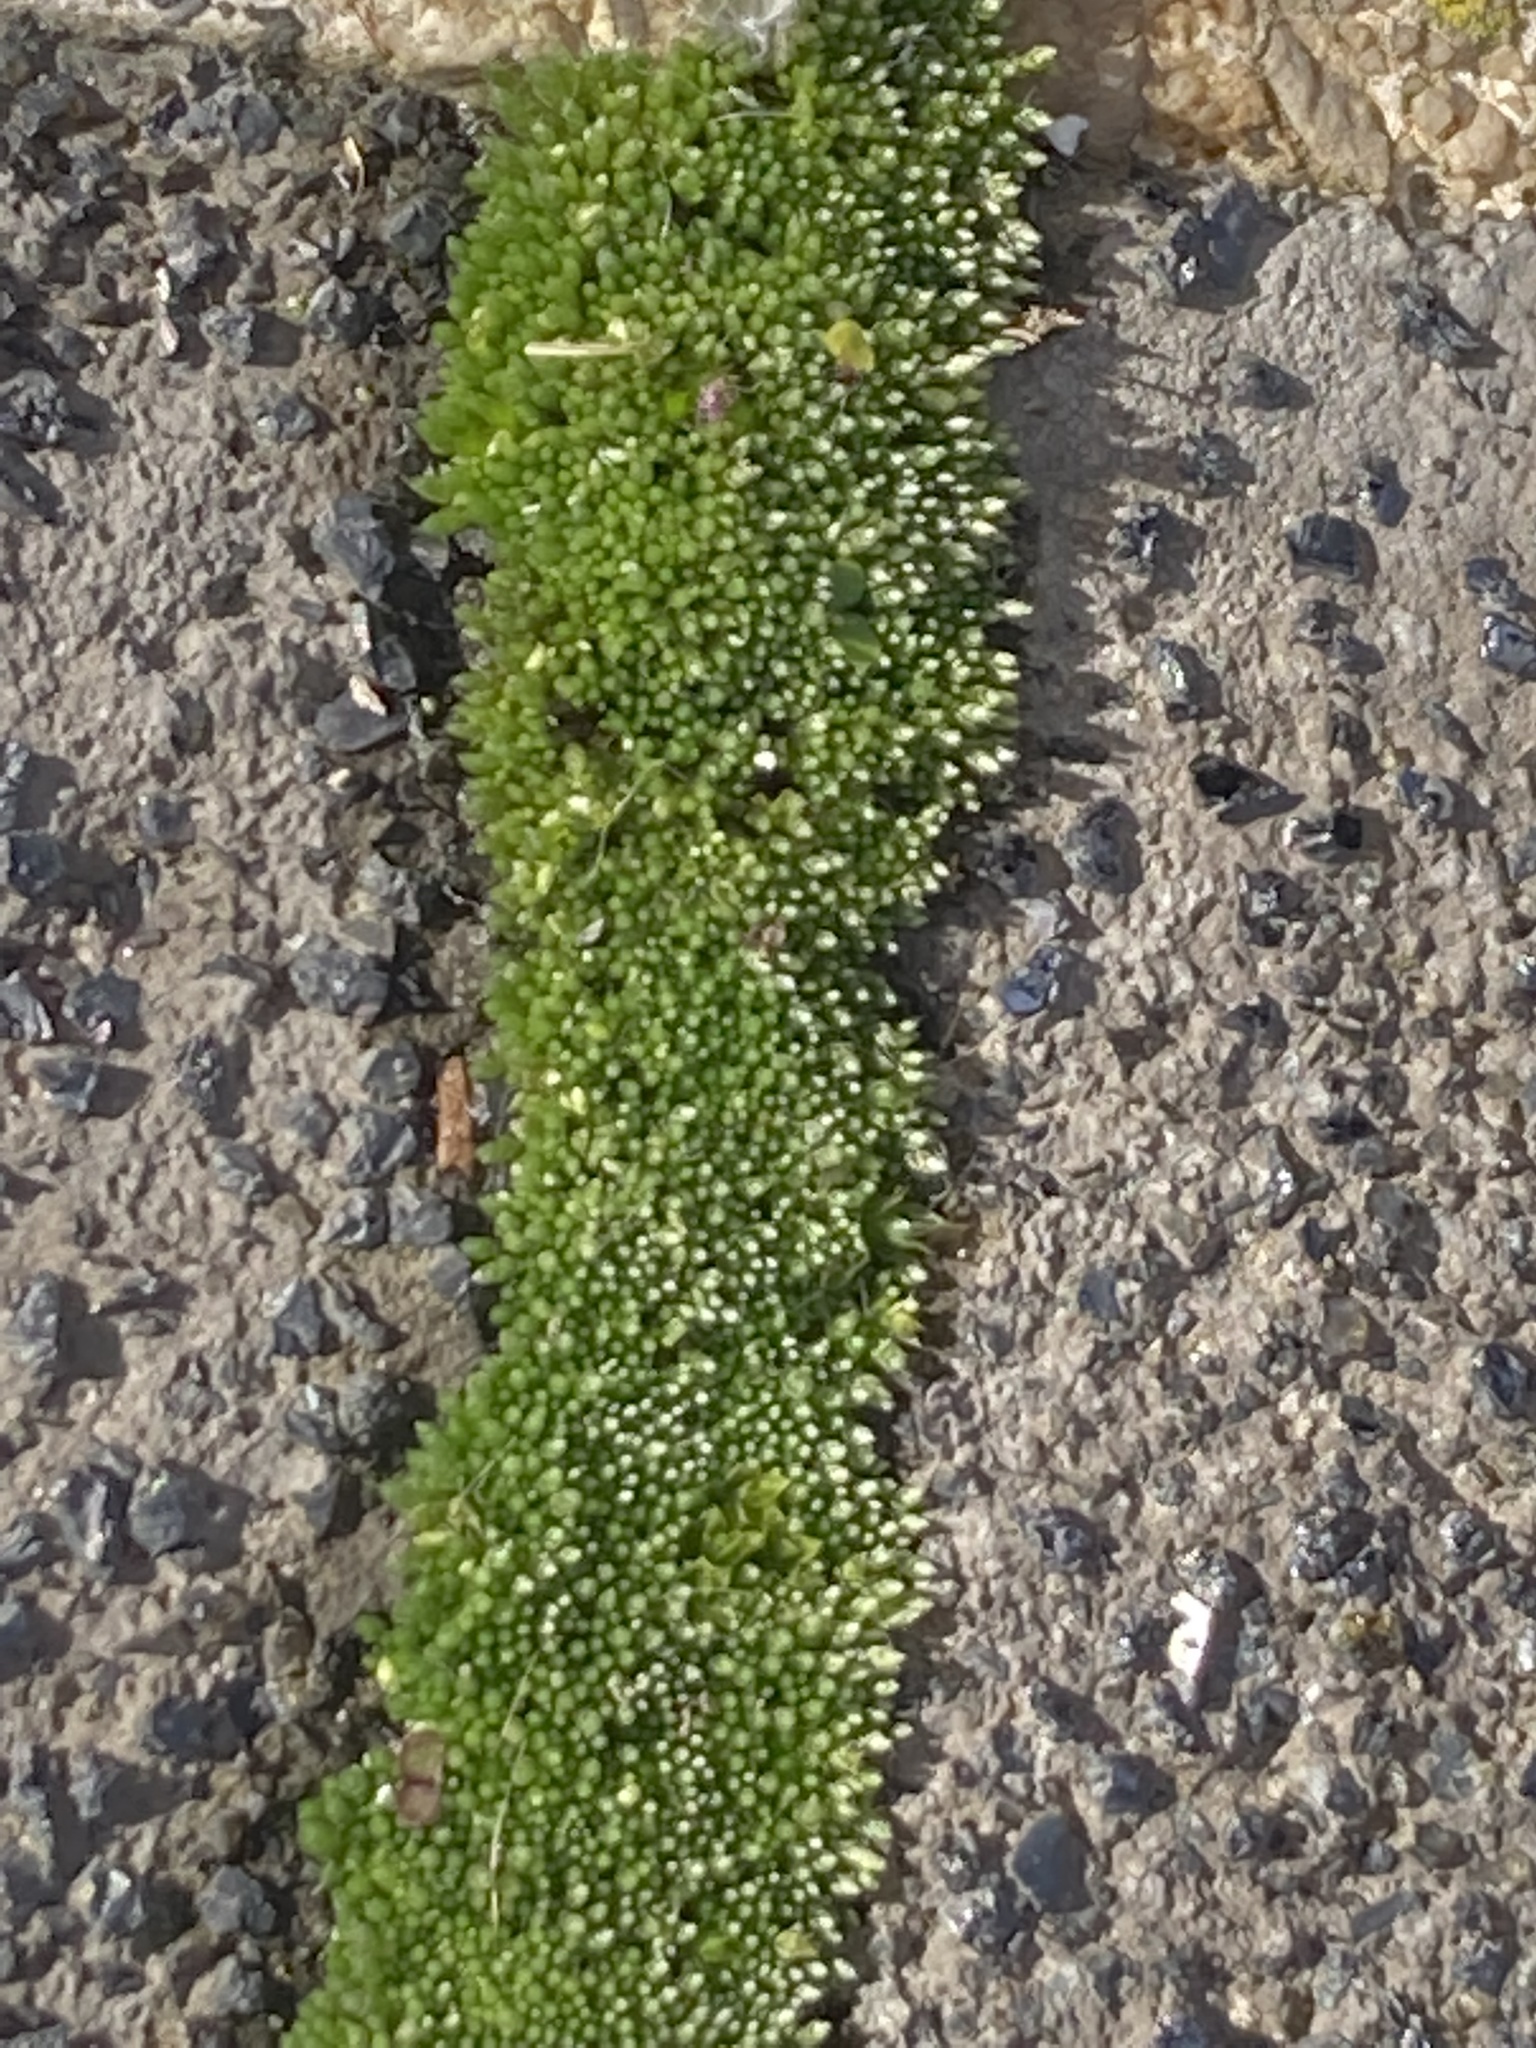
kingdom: Plantae
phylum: Bryophyta
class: Bryopsida
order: Bryales
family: Bryaceae
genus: Bryum
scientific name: Bryum argenteum
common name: Silver-moss
